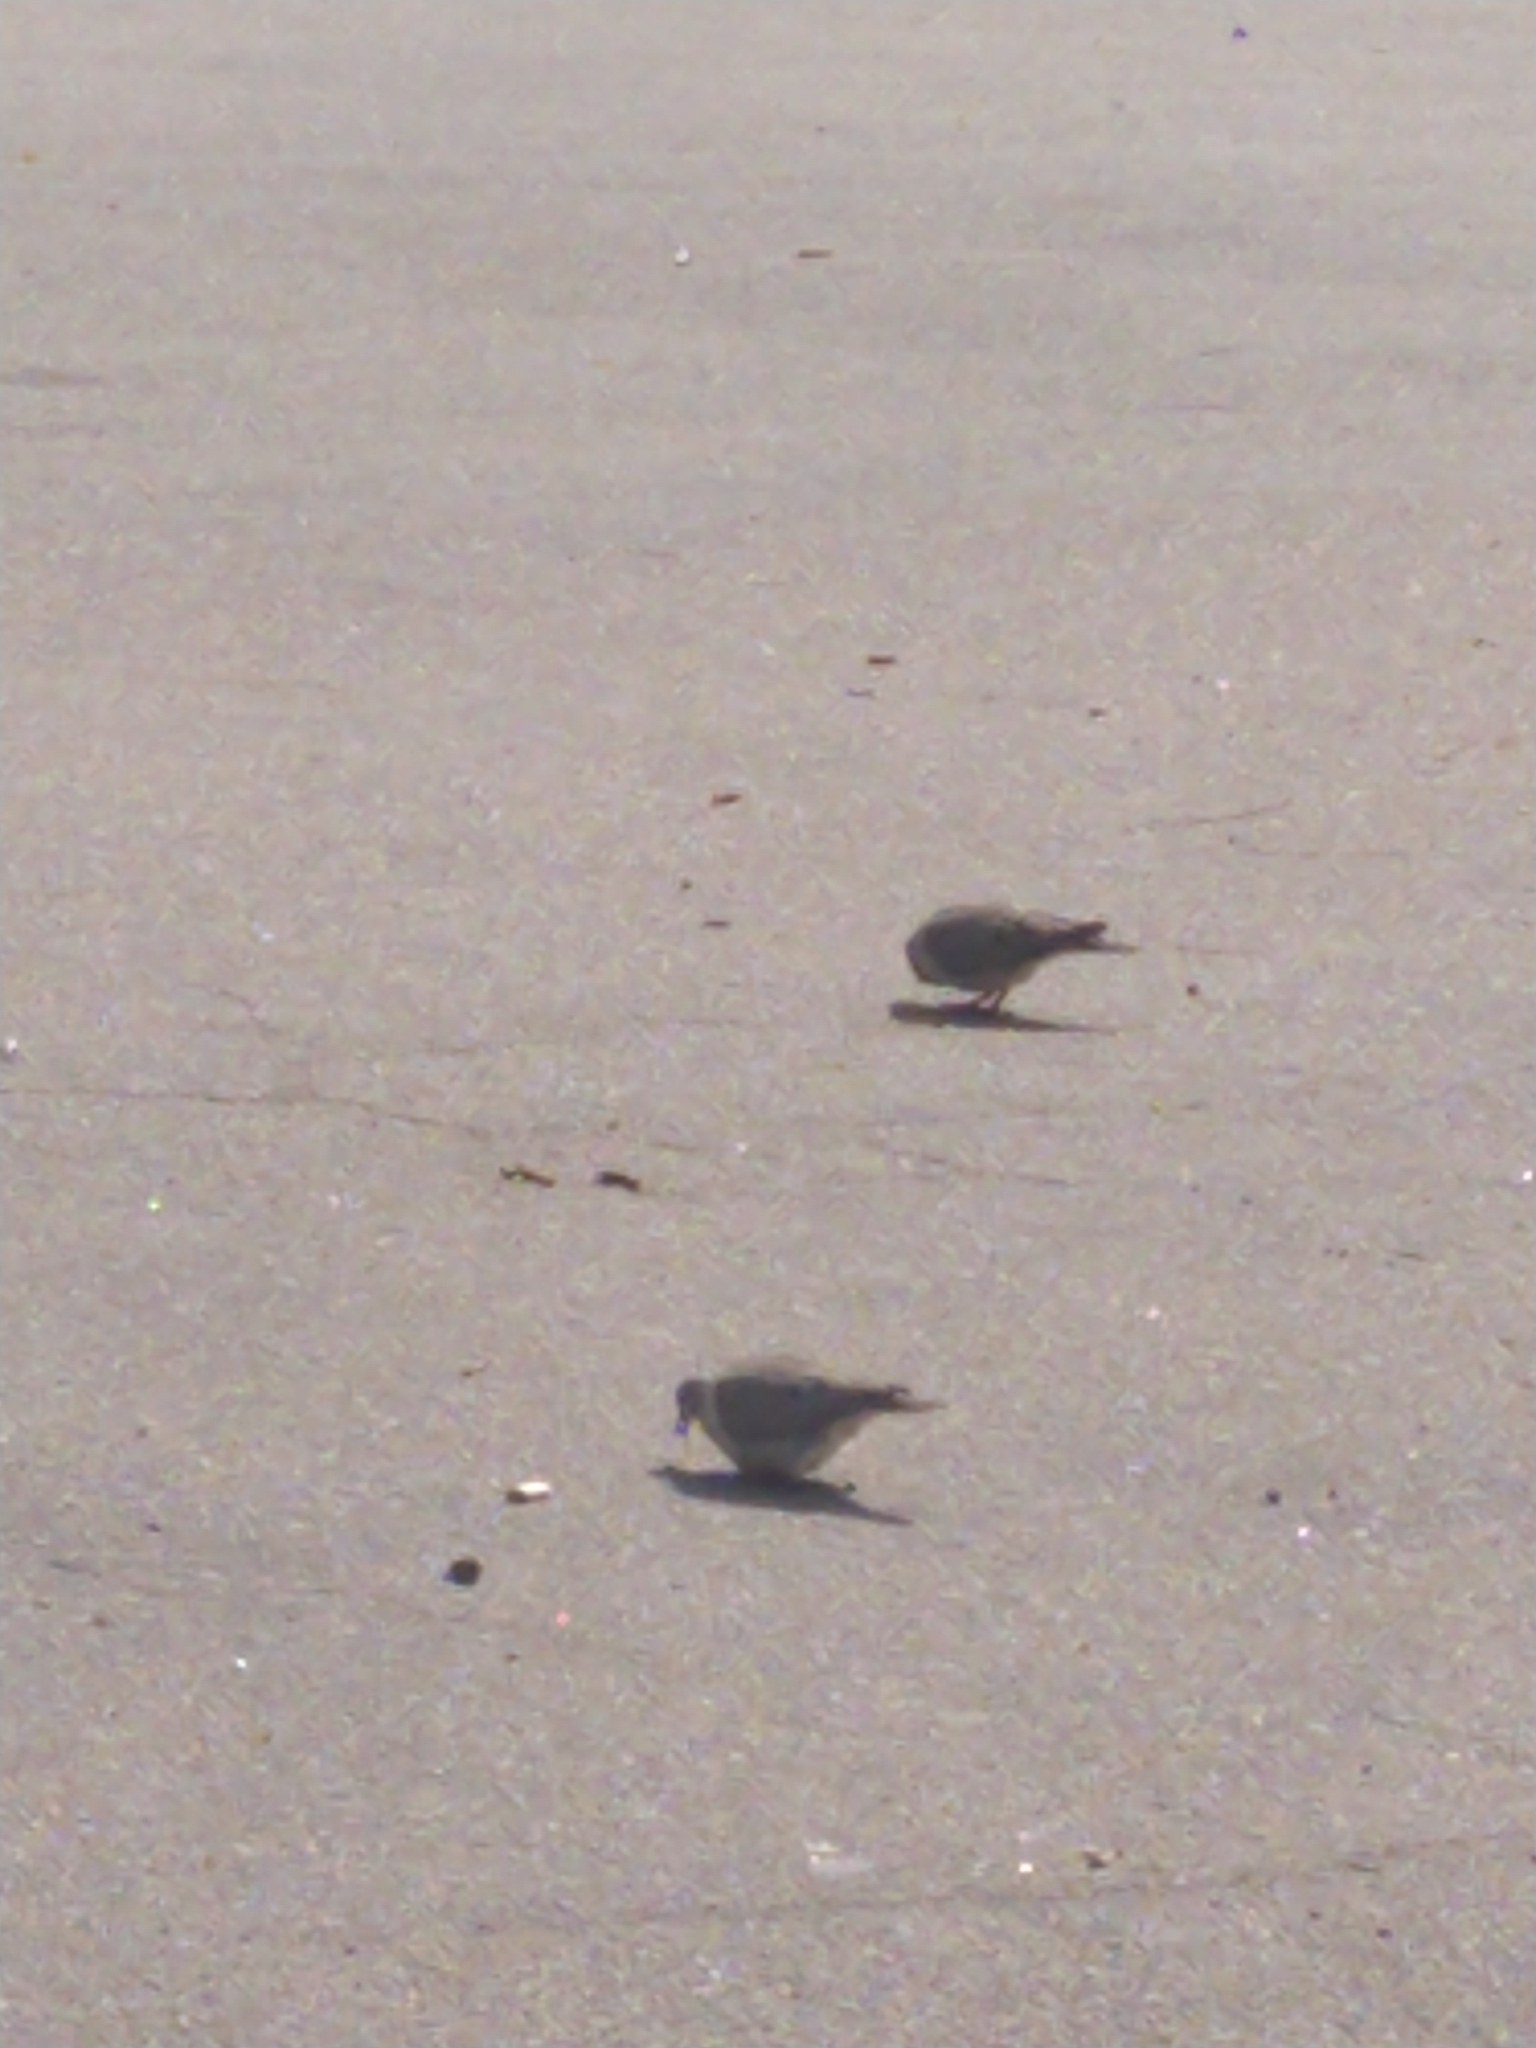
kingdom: Animalia
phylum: Chordata
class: Aves
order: Columbiformes
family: Columbidae
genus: Zenaida
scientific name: Zenaida auriculata
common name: Eared dove
